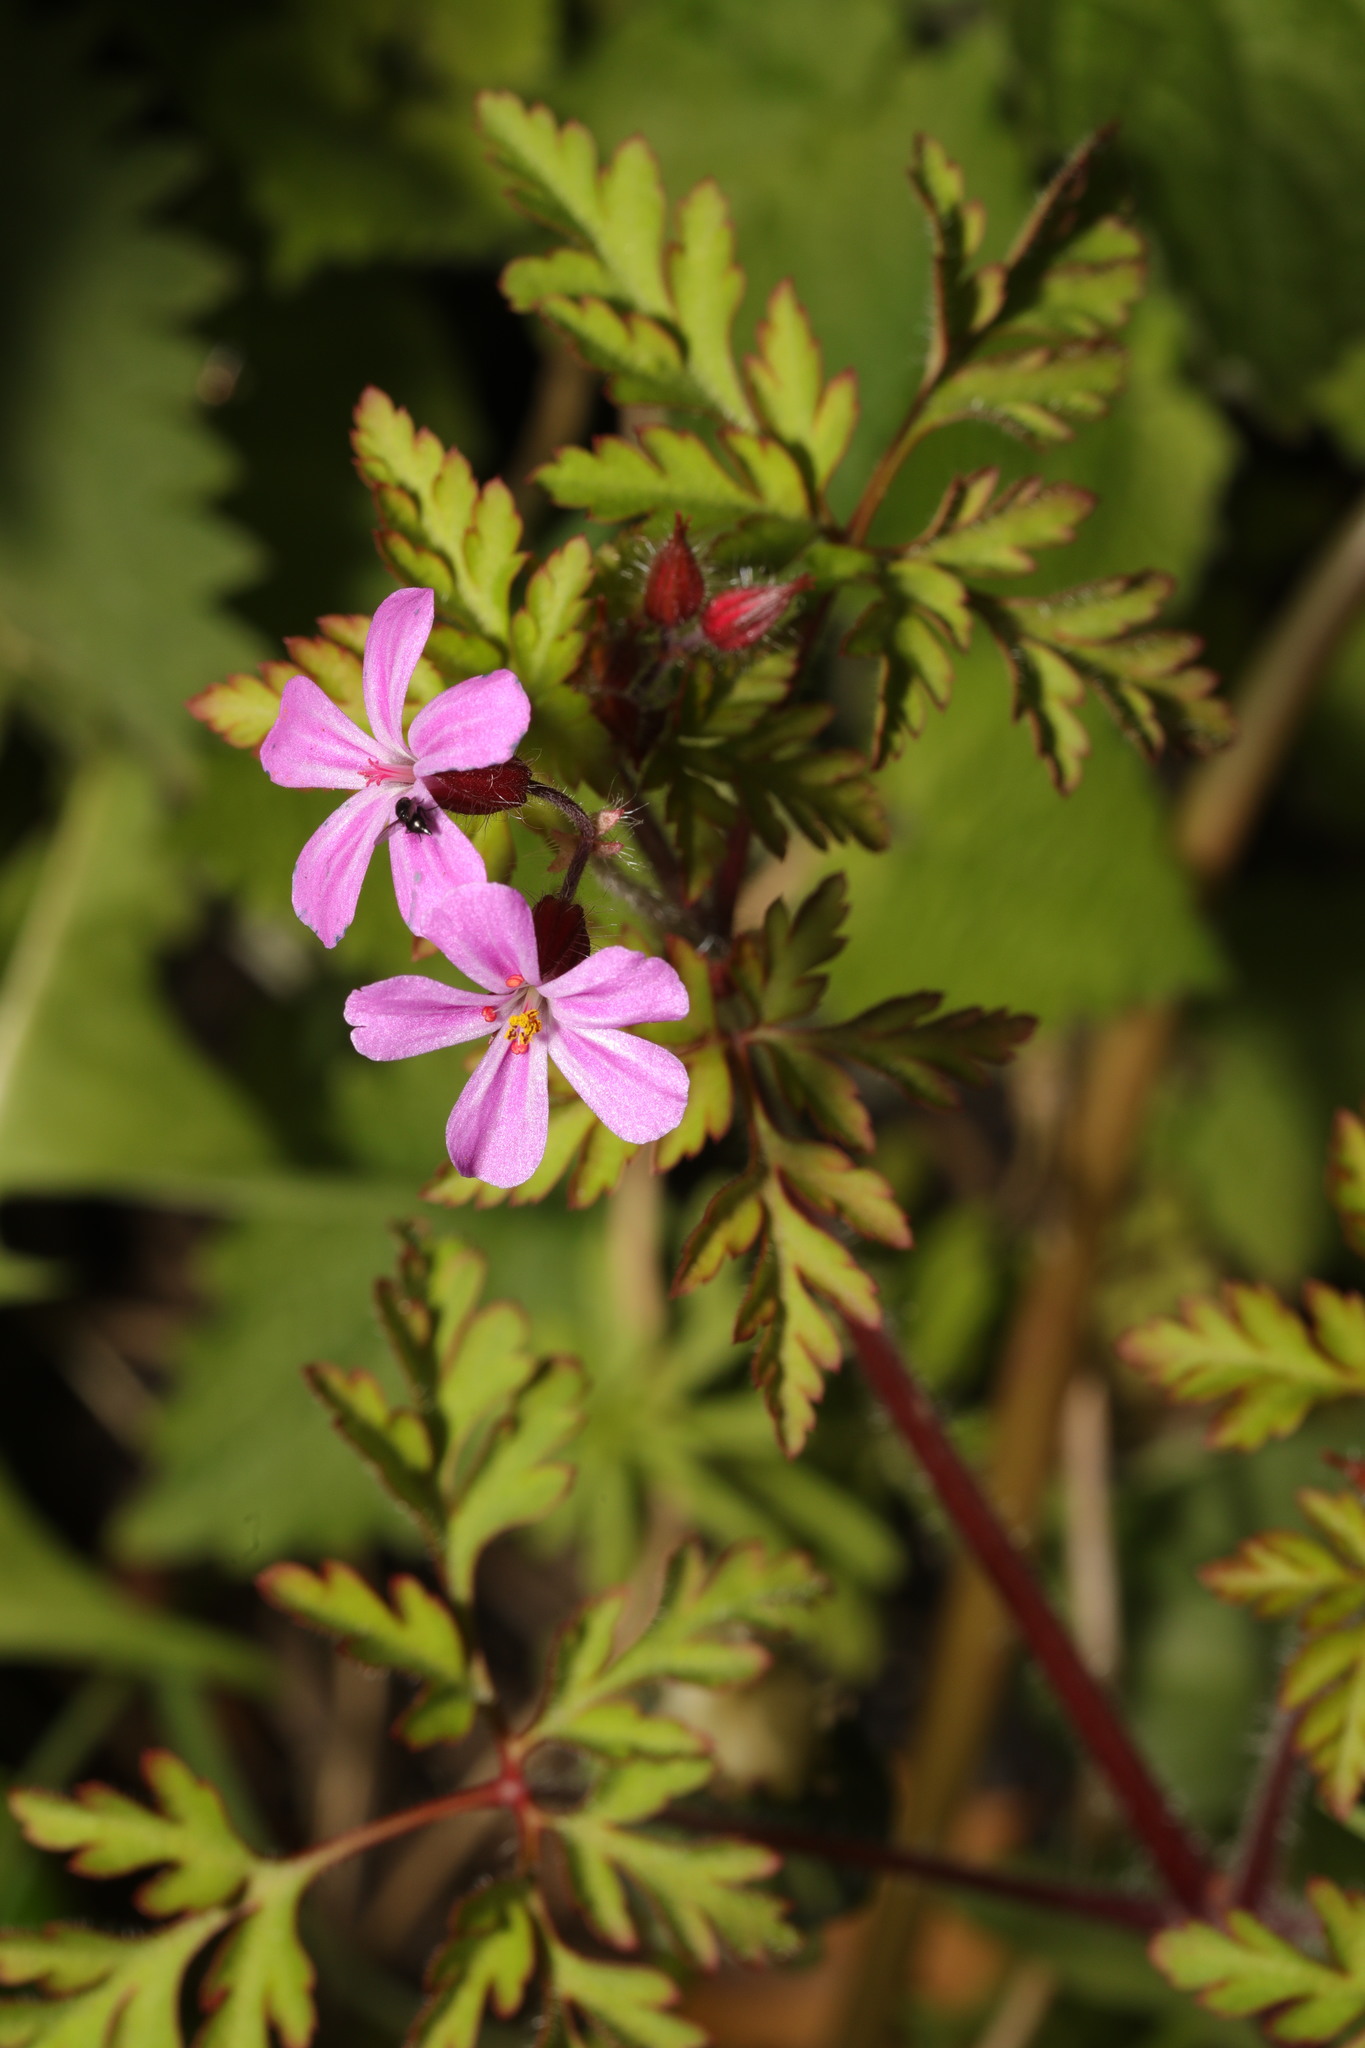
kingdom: Plantae
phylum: Tracheophyta
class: Magnoliopsida
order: Geraniales
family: Geraniaceae
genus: Geranium
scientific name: Geranium robertianum
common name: Herb-robert
